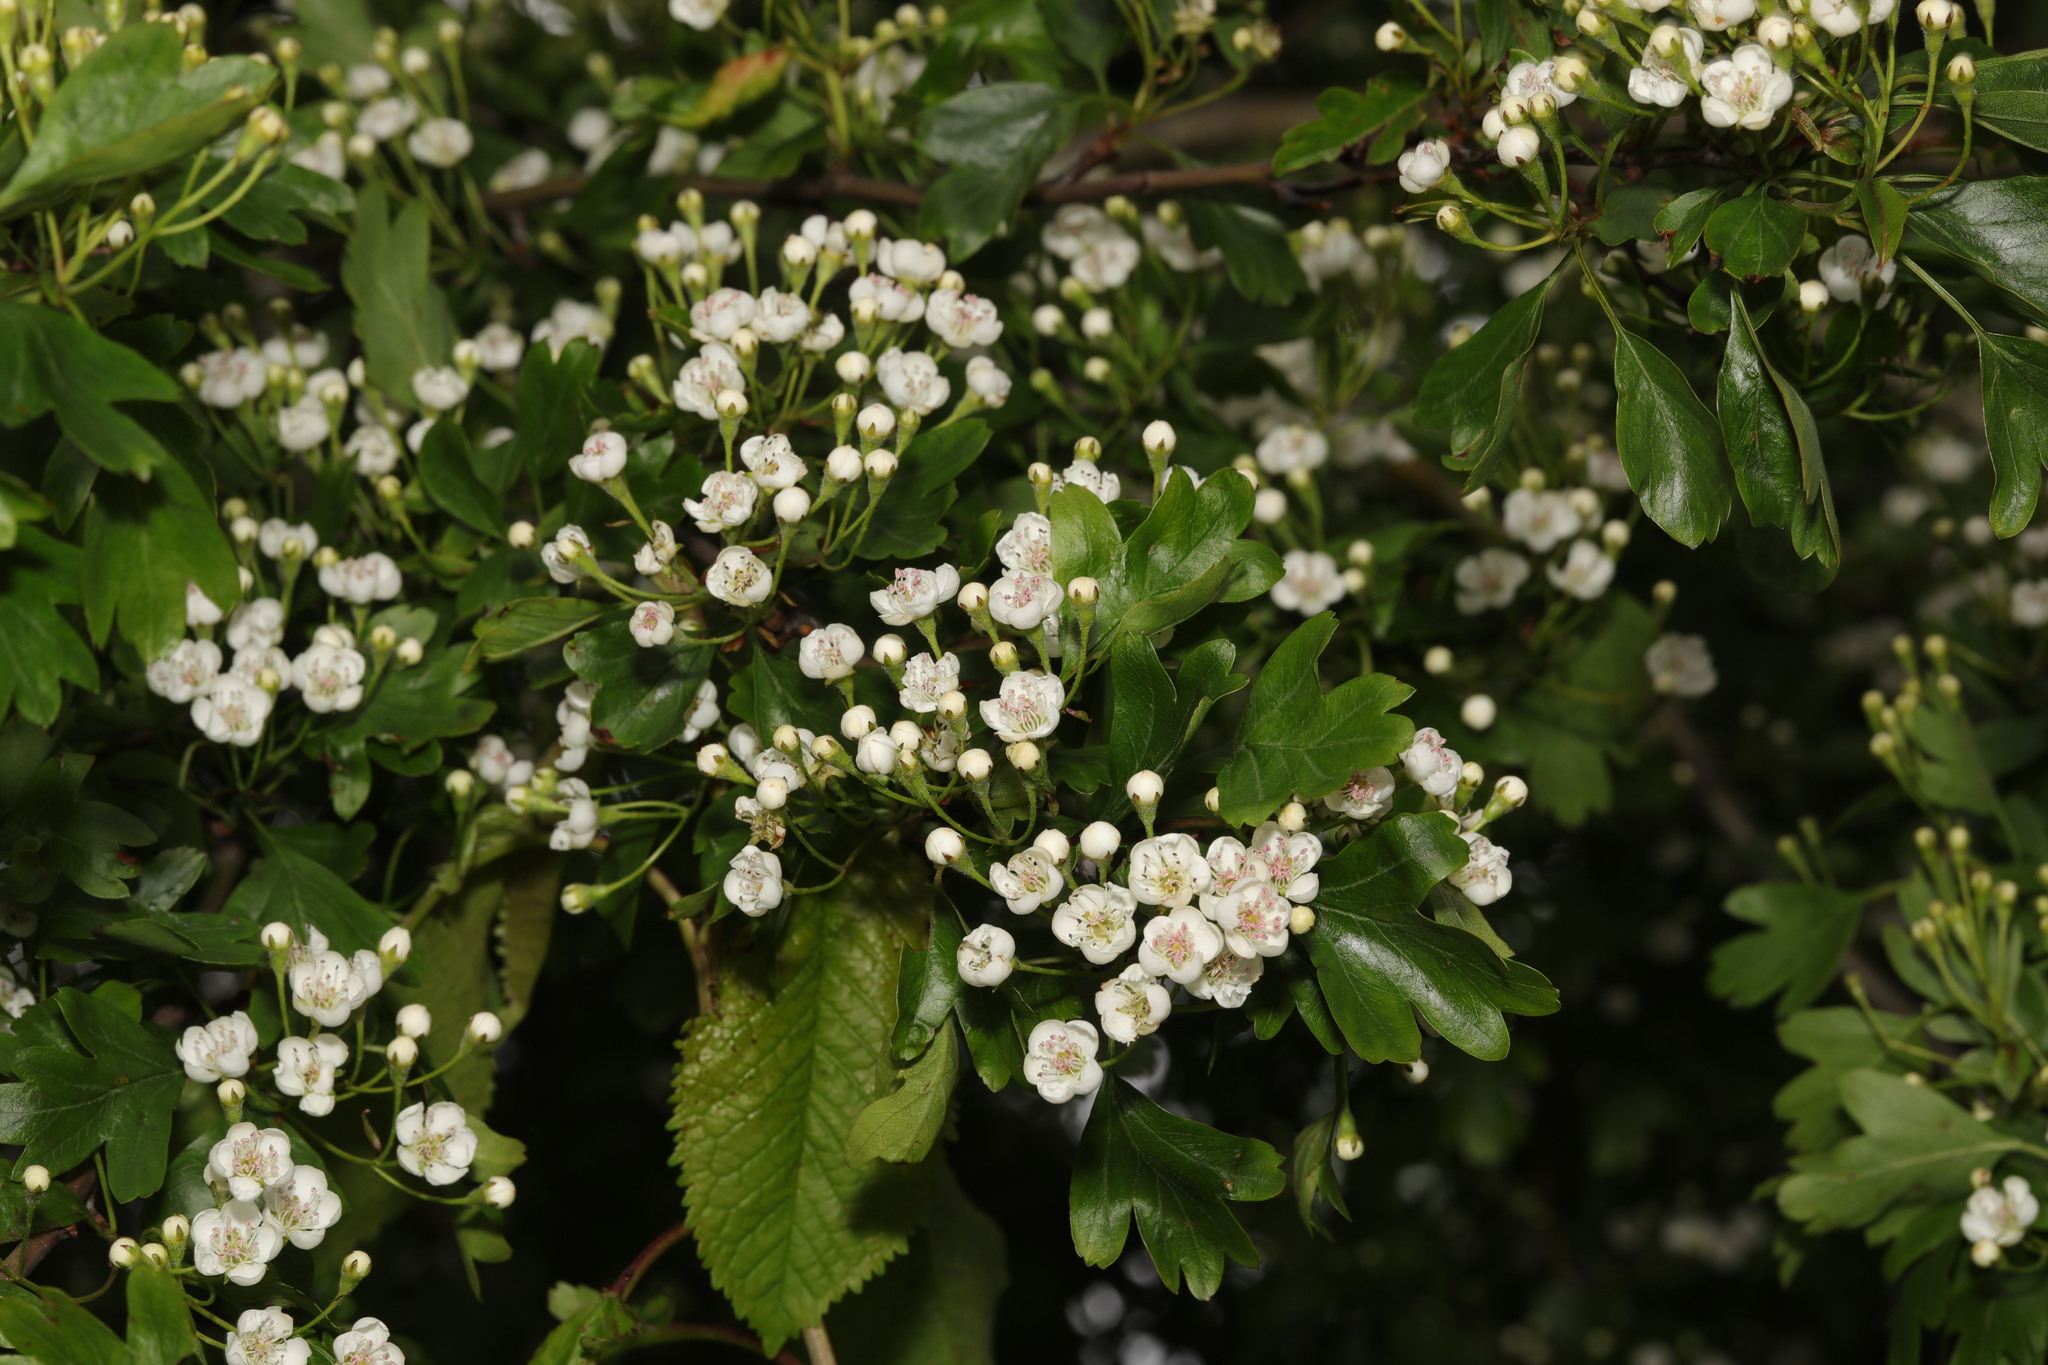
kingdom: Plantae
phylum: Tracheophyta
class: Magnoliopsida
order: Rosales
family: Rosaceae
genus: Crataegus
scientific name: Crataegus monogyna
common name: Hawthorn
